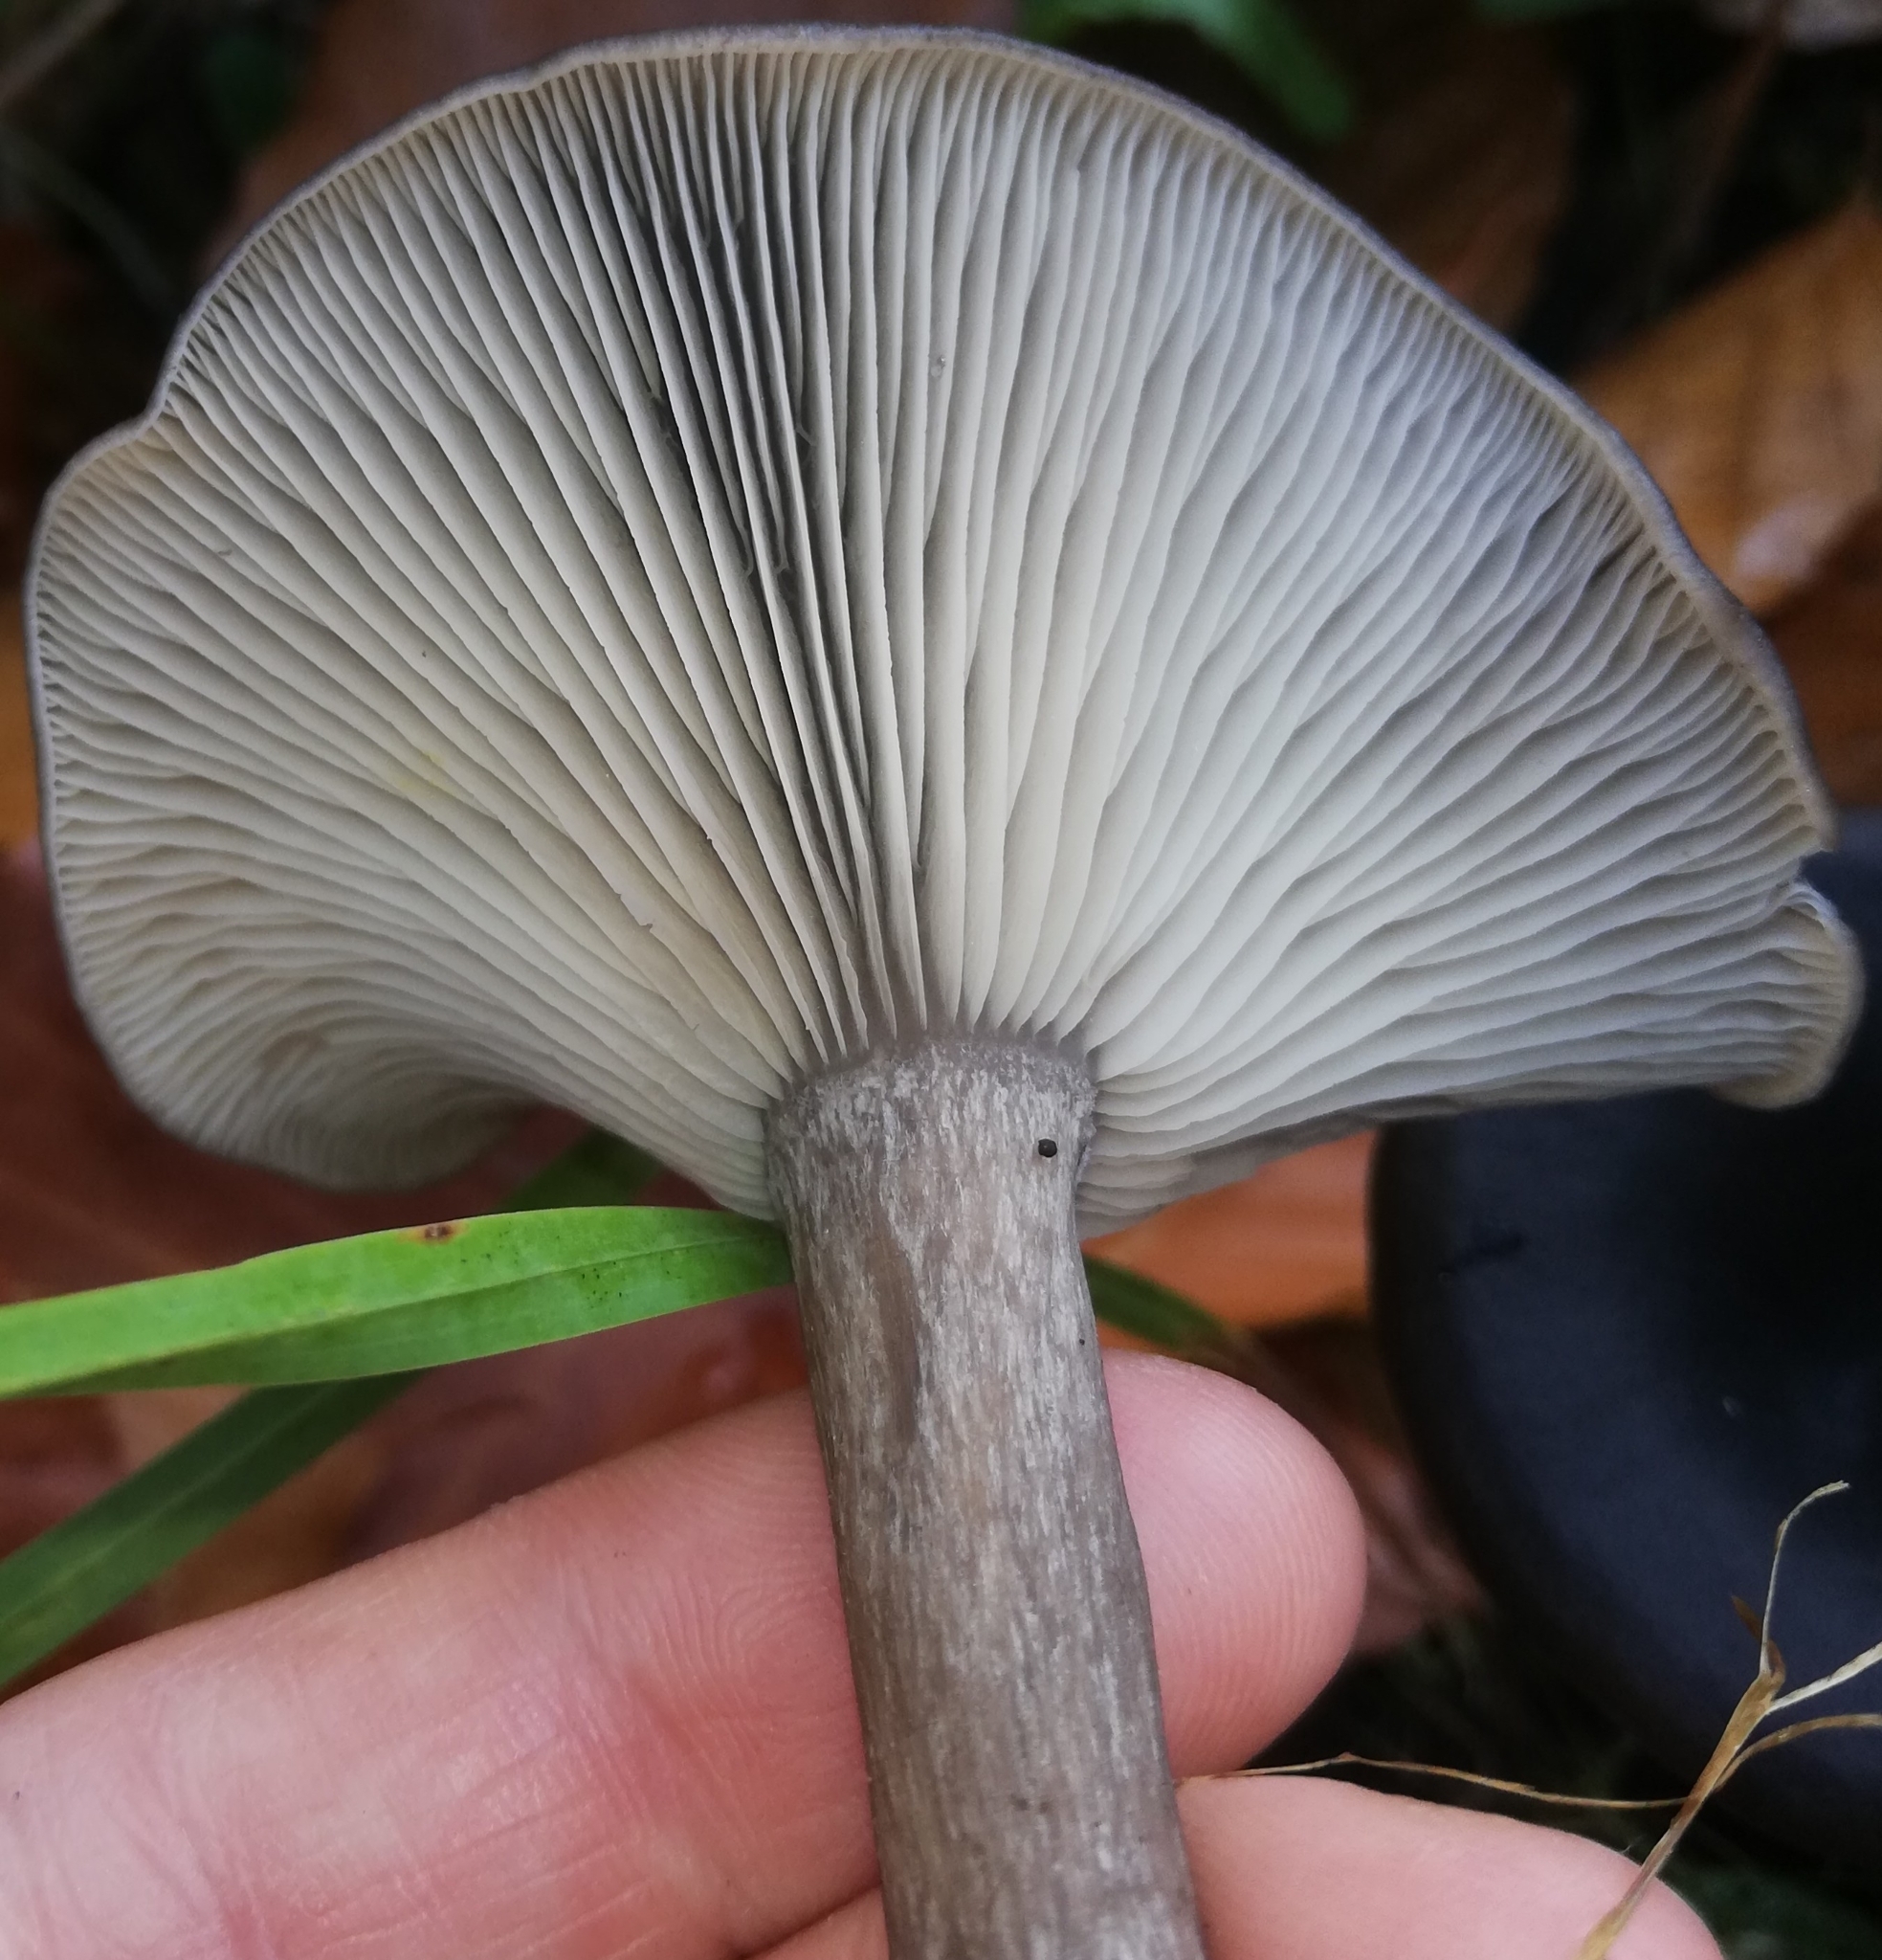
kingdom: Fungi
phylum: Basidiomycota
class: Agaricomycetes
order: Agaricales
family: Pseudoclitocybaceae
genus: Pseudoclitocybe
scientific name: Pseudoclitocybe cyathiformis
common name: Goblet
